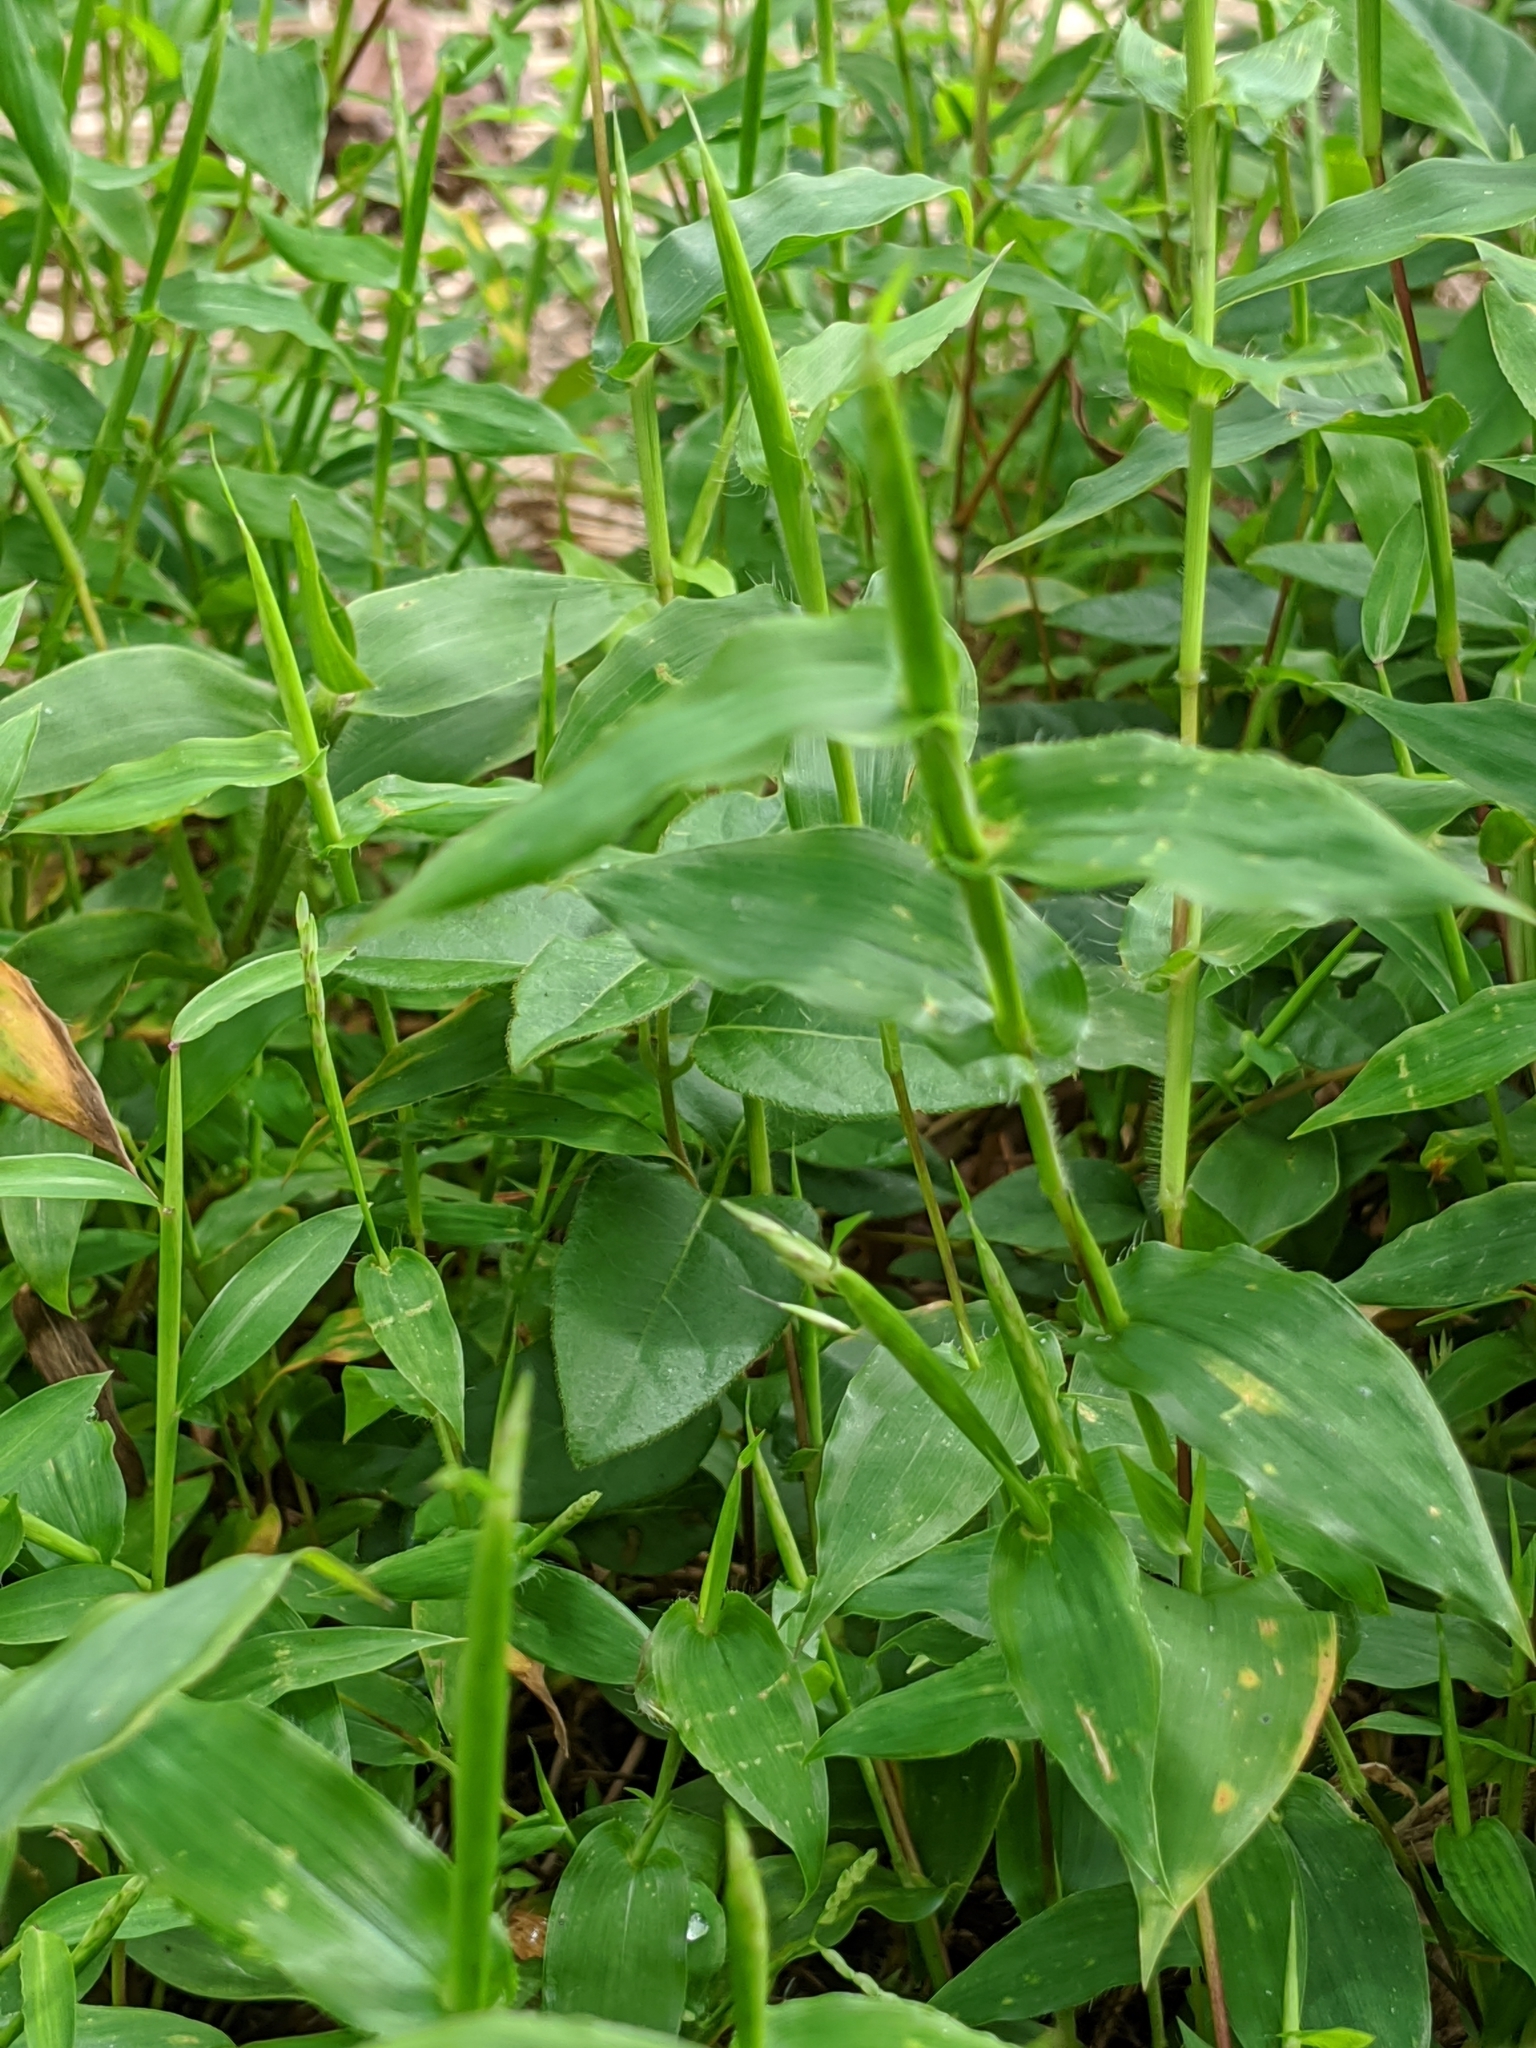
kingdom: Plantae
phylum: Tracheophyta
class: Liliopsida
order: Poales
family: Poaceae
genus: Arthraxon
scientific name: Arthraxon hispidus
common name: Small carpgrass
